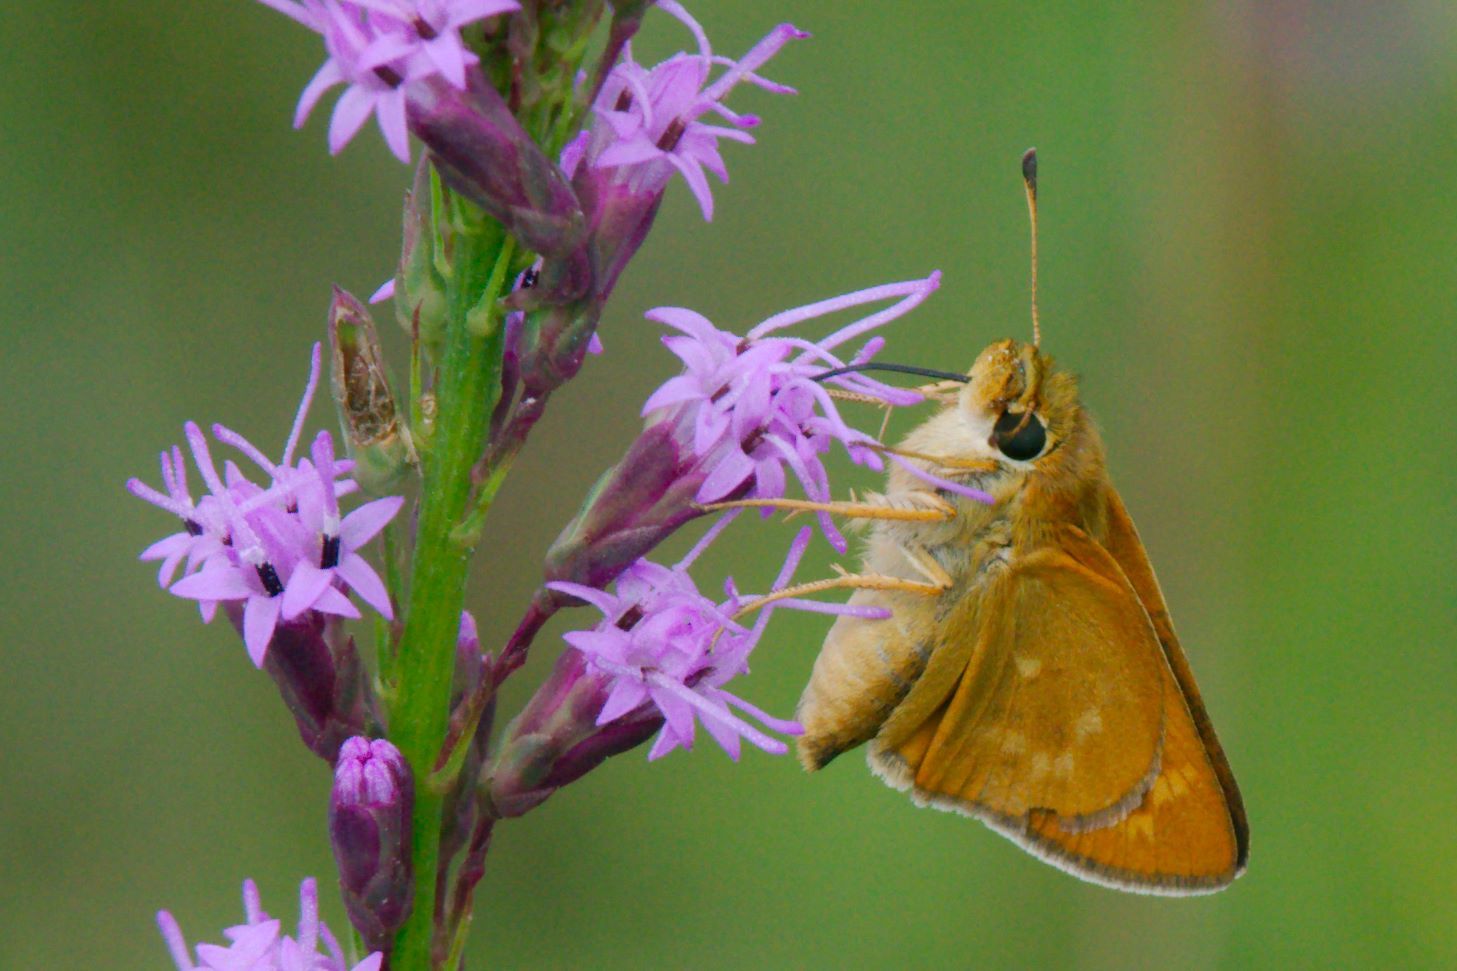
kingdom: Animalia
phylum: Arthropoda
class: Insecta
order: Lepidoptera
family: Hesperiidae
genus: Hesperia
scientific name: Hesperia meskei
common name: Meske's skipper
